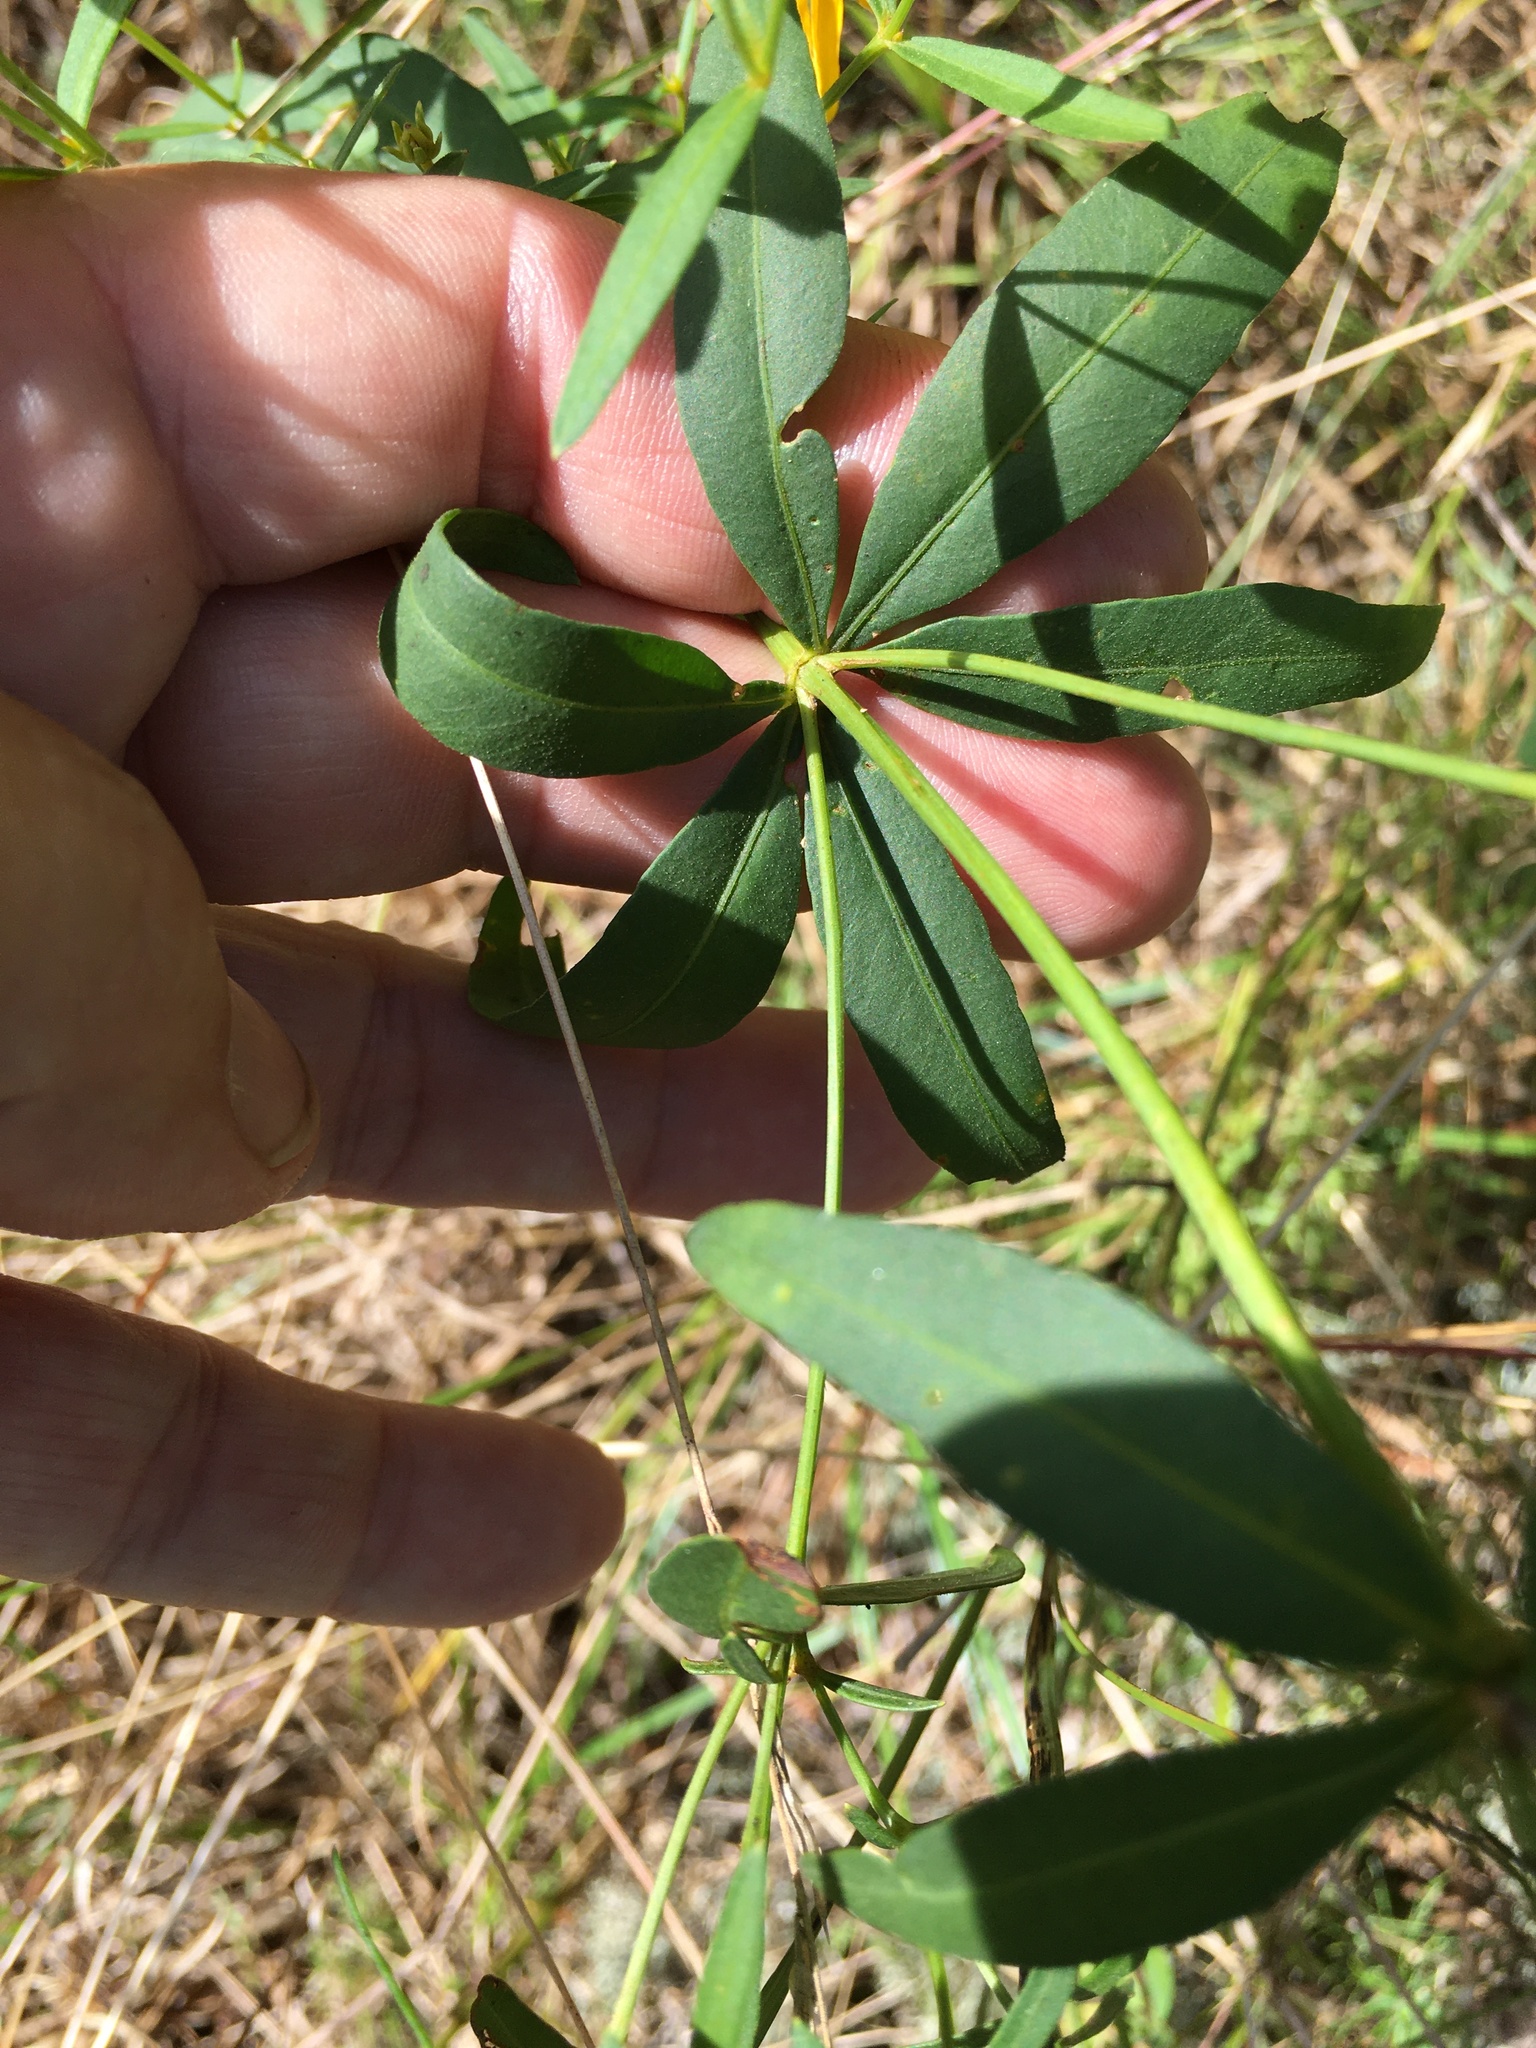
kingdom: Plantae
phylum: Tracheophyta
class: Magnoliopsida
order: Asterales
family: Asteraceae
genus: Coreopsis
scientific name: Coreopsis major
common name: Forest tickseed
